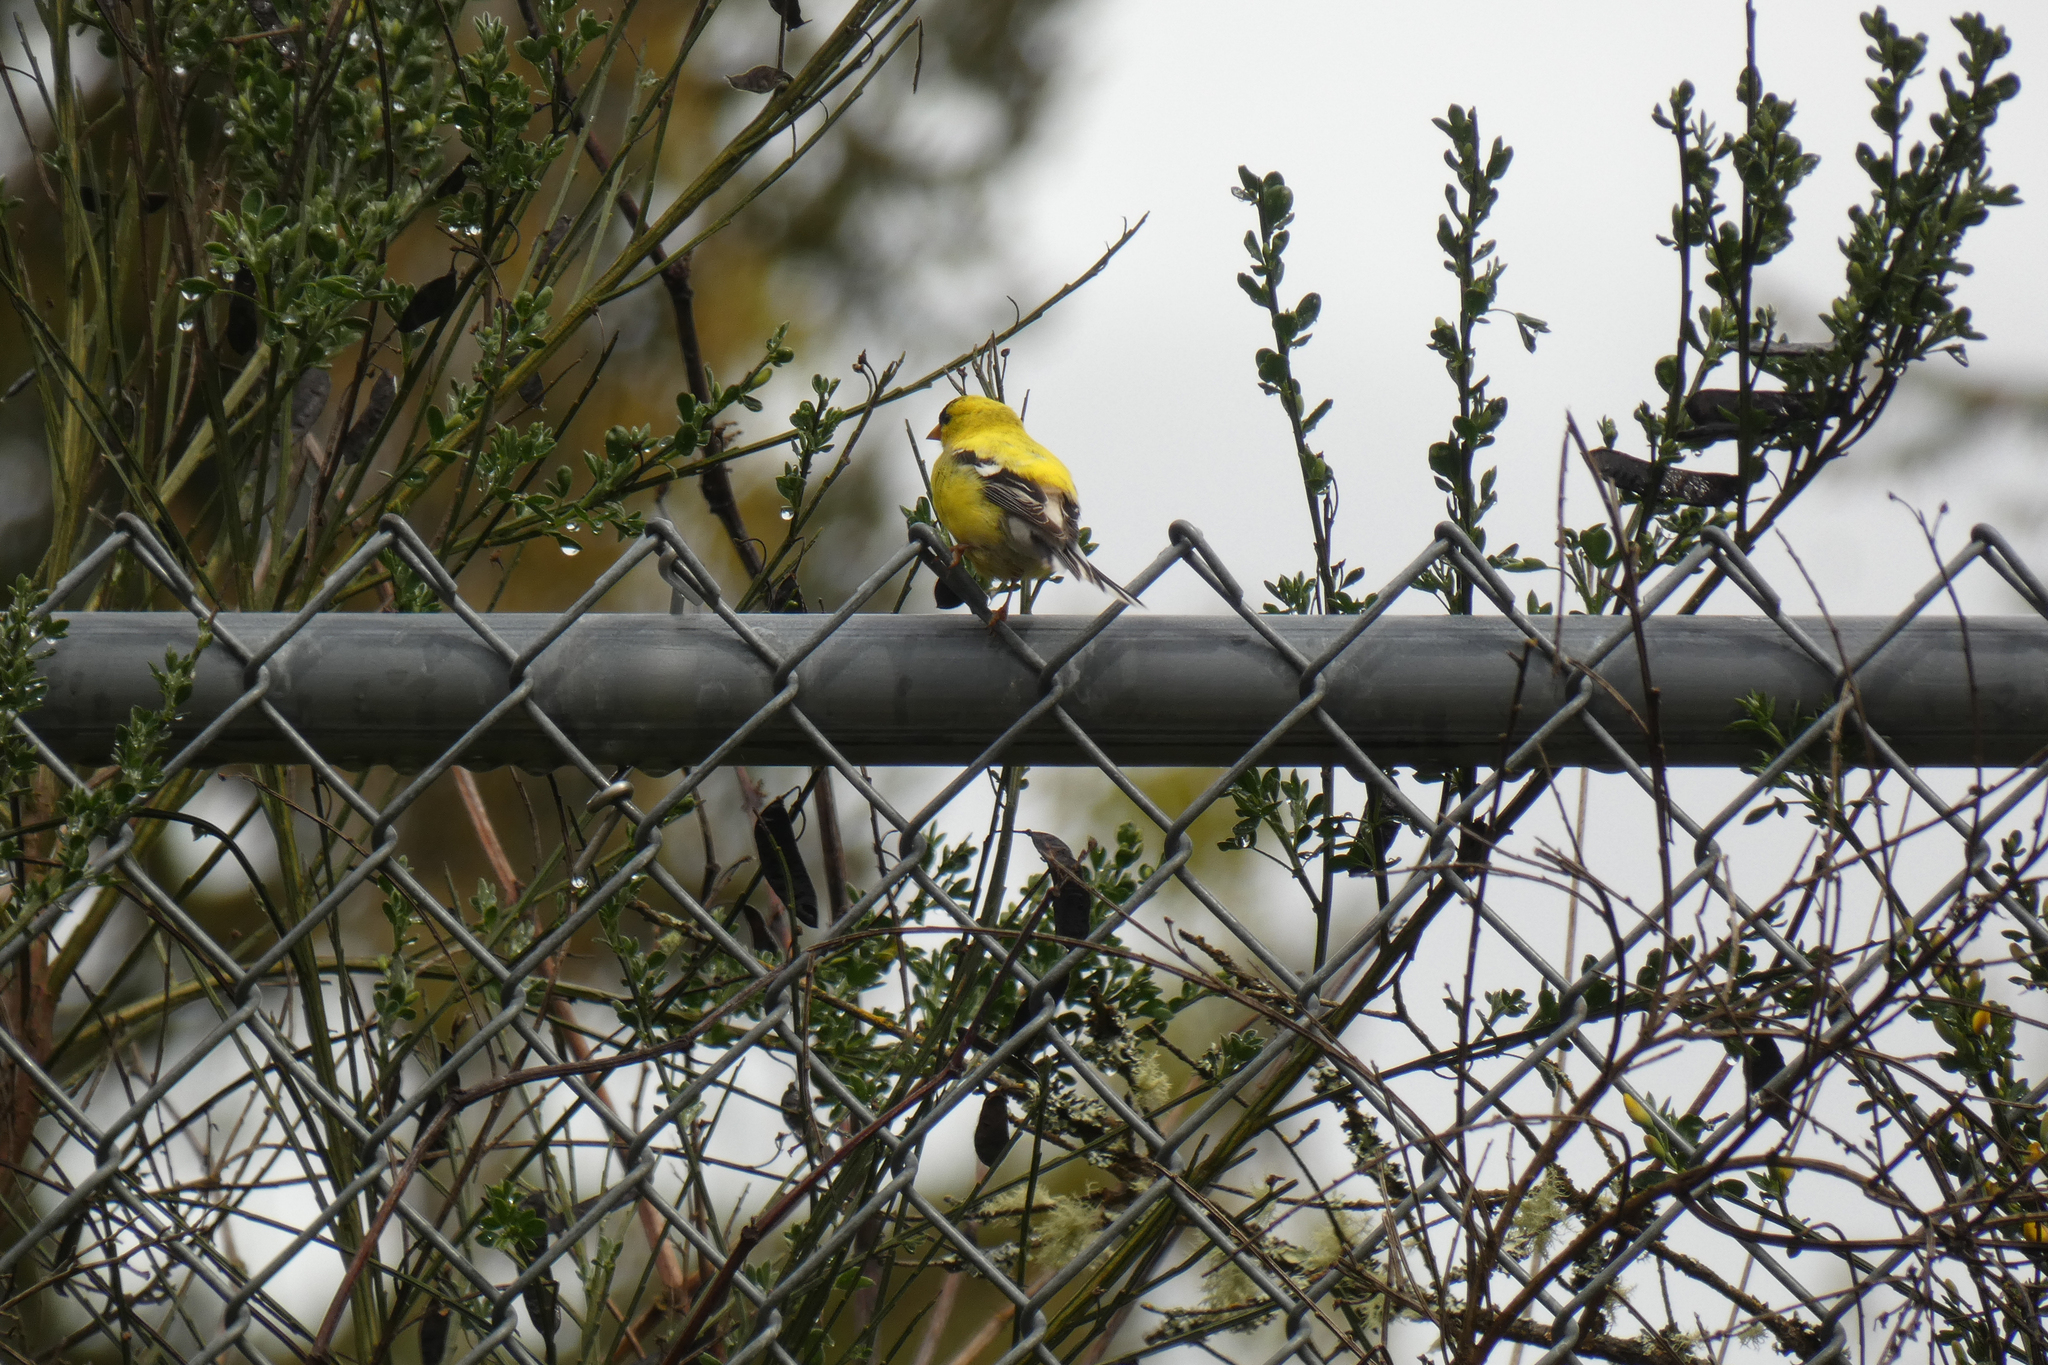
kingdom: Animalia
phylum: Chordata
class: Aves
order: Passeriformes
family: Fringillidae
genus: Spinus
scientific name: Spinus tristis
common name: American goldfinch
